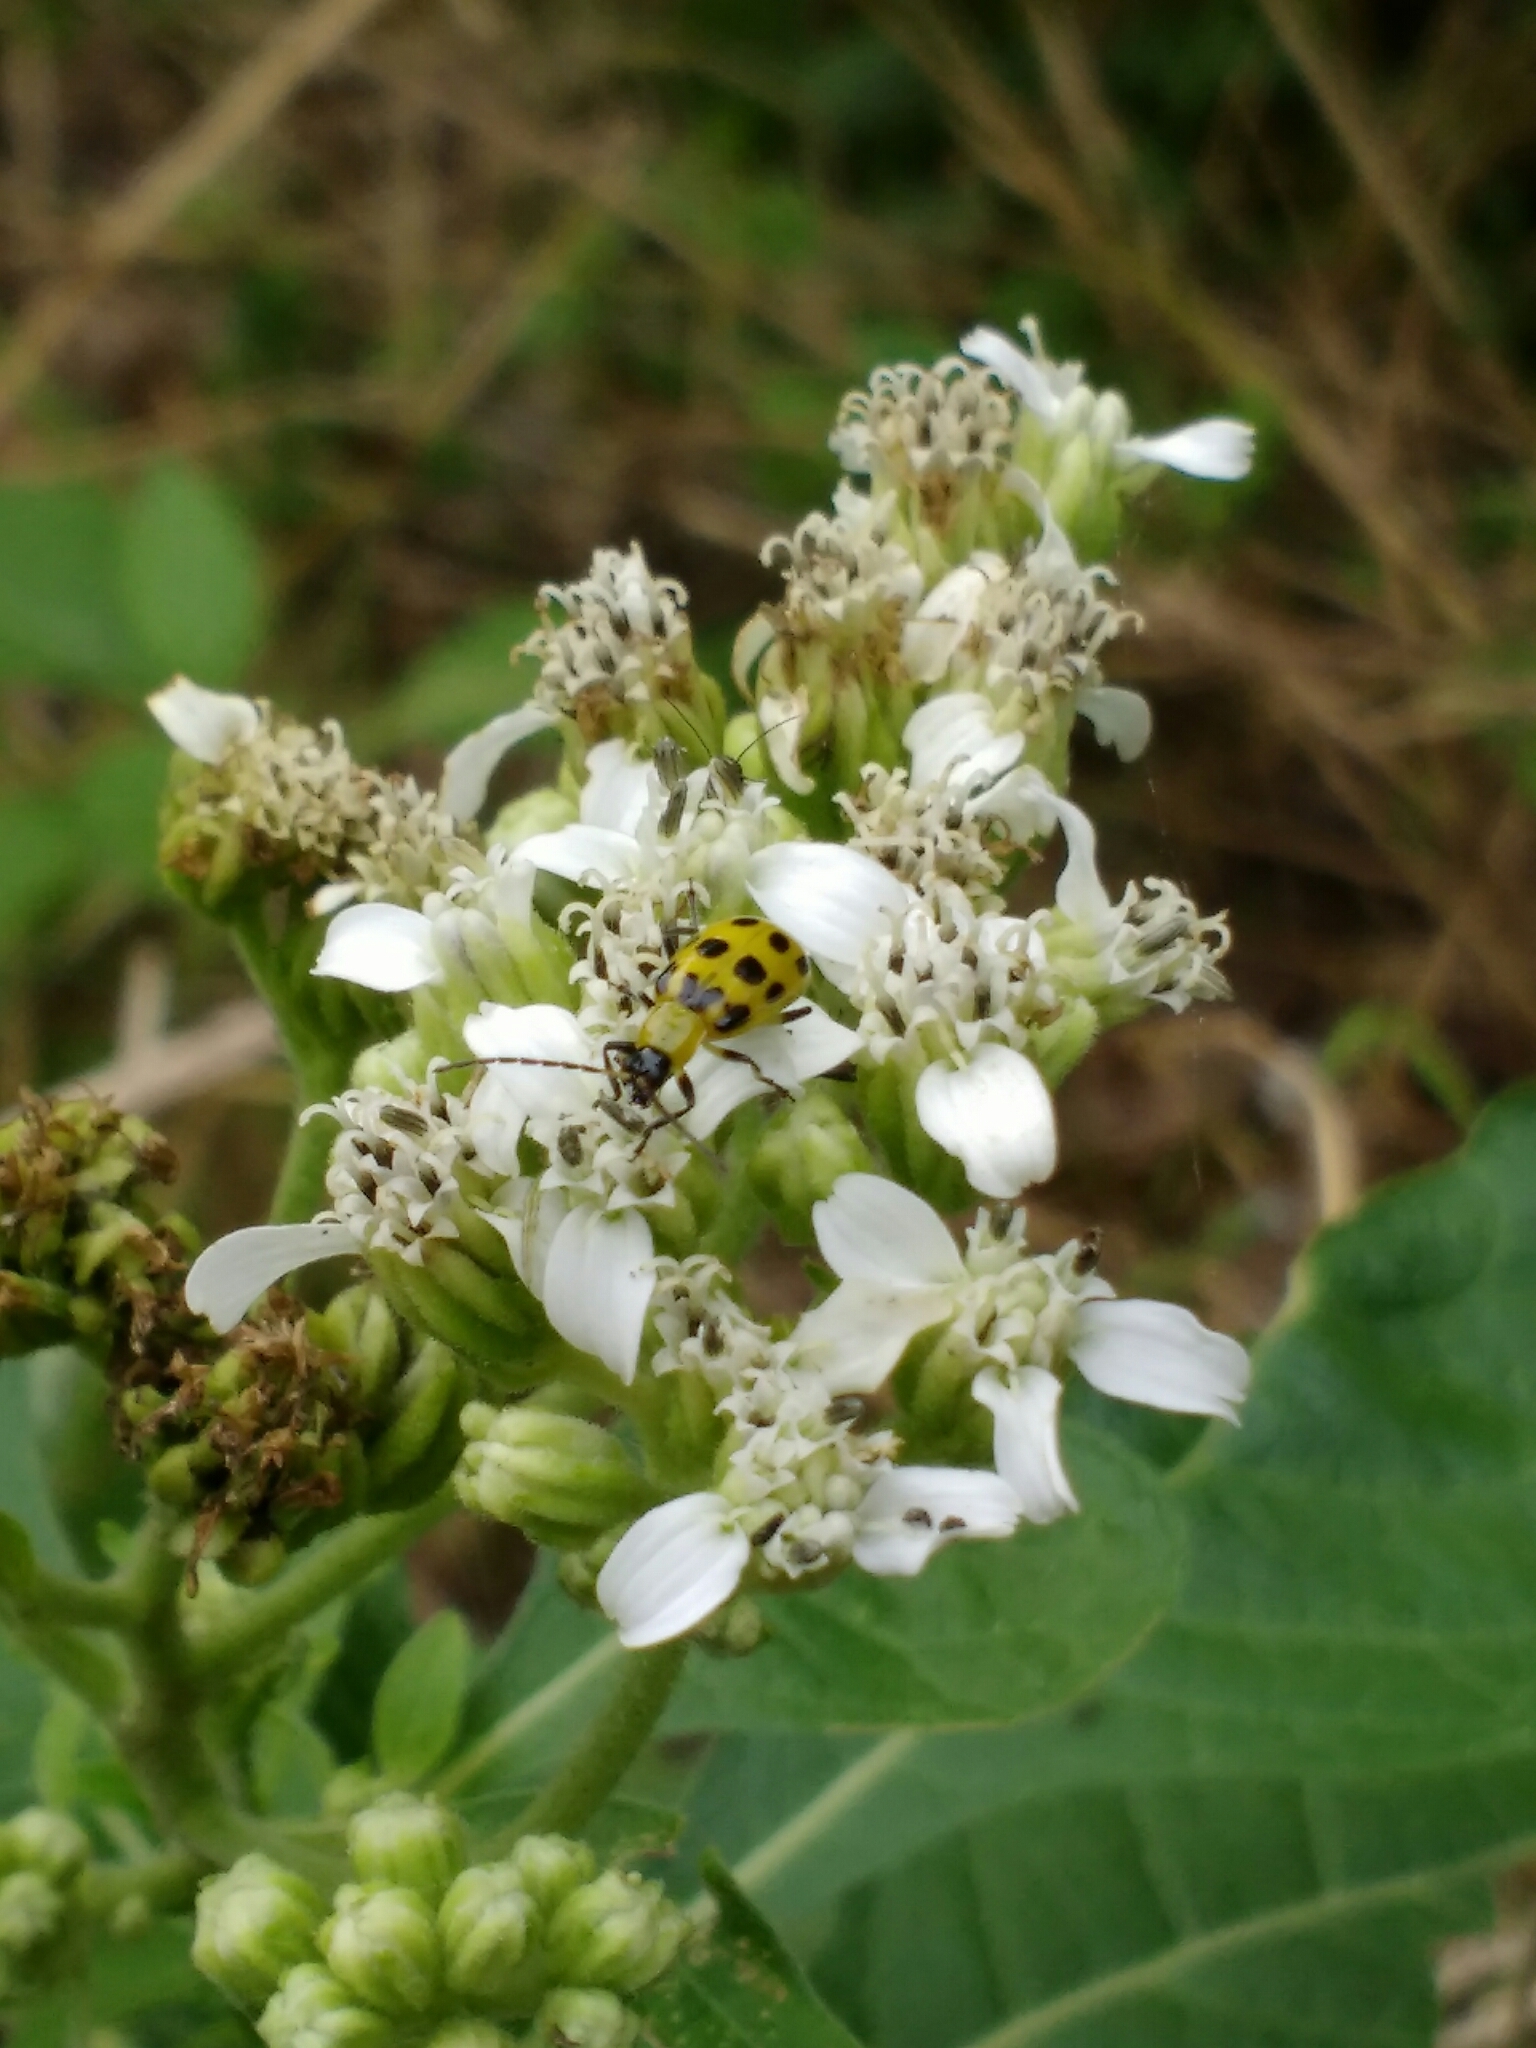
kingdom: Plantae
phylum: Tracheophyta
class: Magnoliopsida
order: Asterales
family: Asteraceae
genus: Verbesina
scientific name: Verbesina virginica
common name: Frostweed
